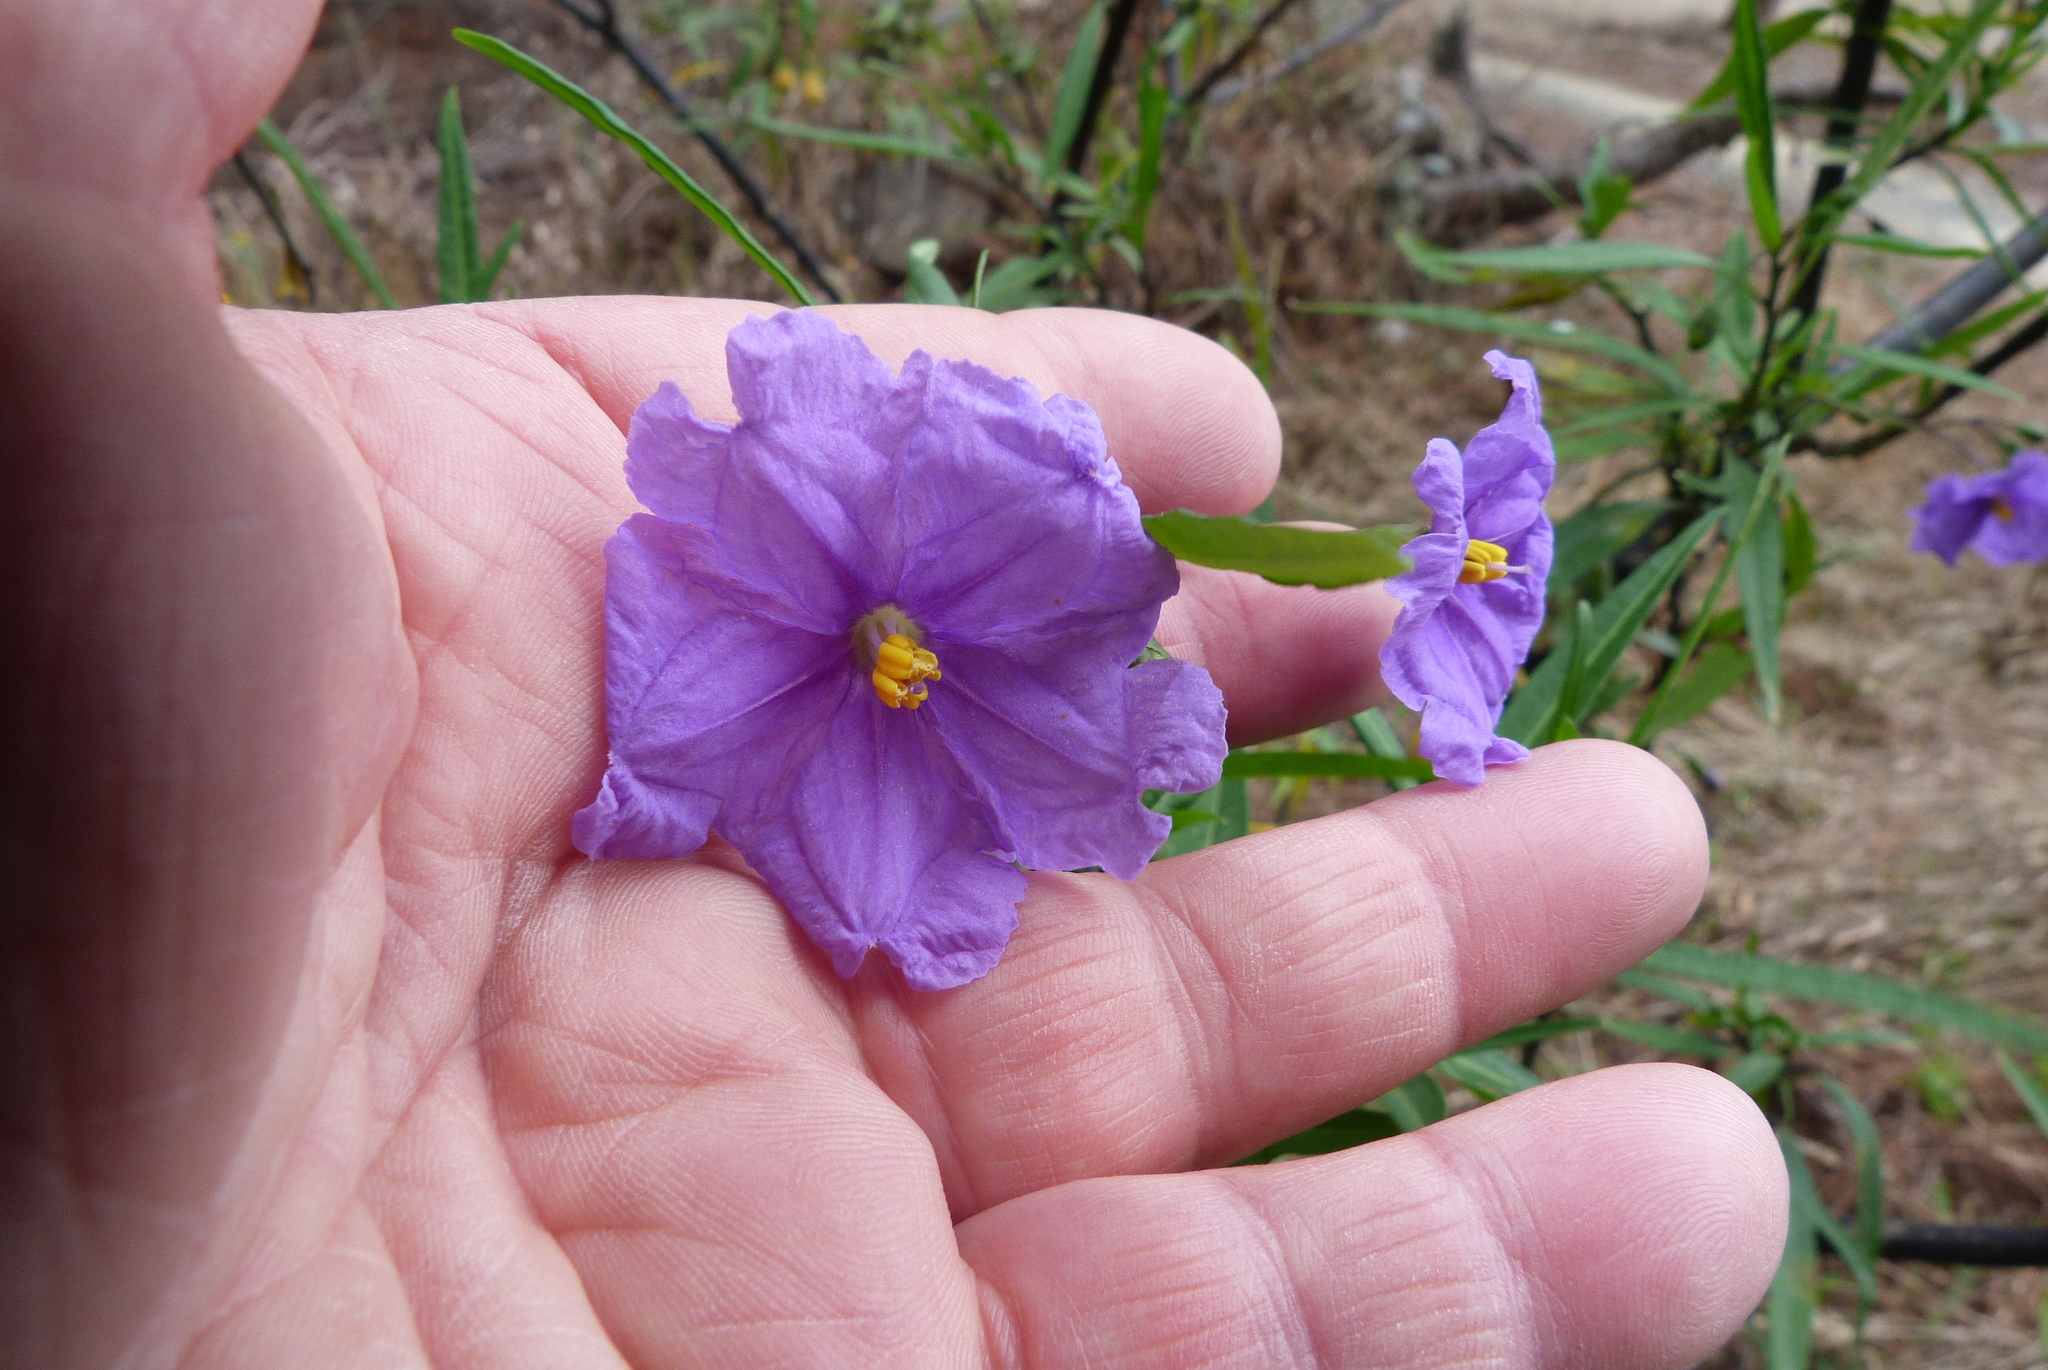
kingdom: Plantae
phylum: Tracheophyta
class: Magnoliopsida
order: Solanales
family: Solanaceae
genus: Solanum
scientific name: Solanum laciniatum
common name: Kangaroo-apple
